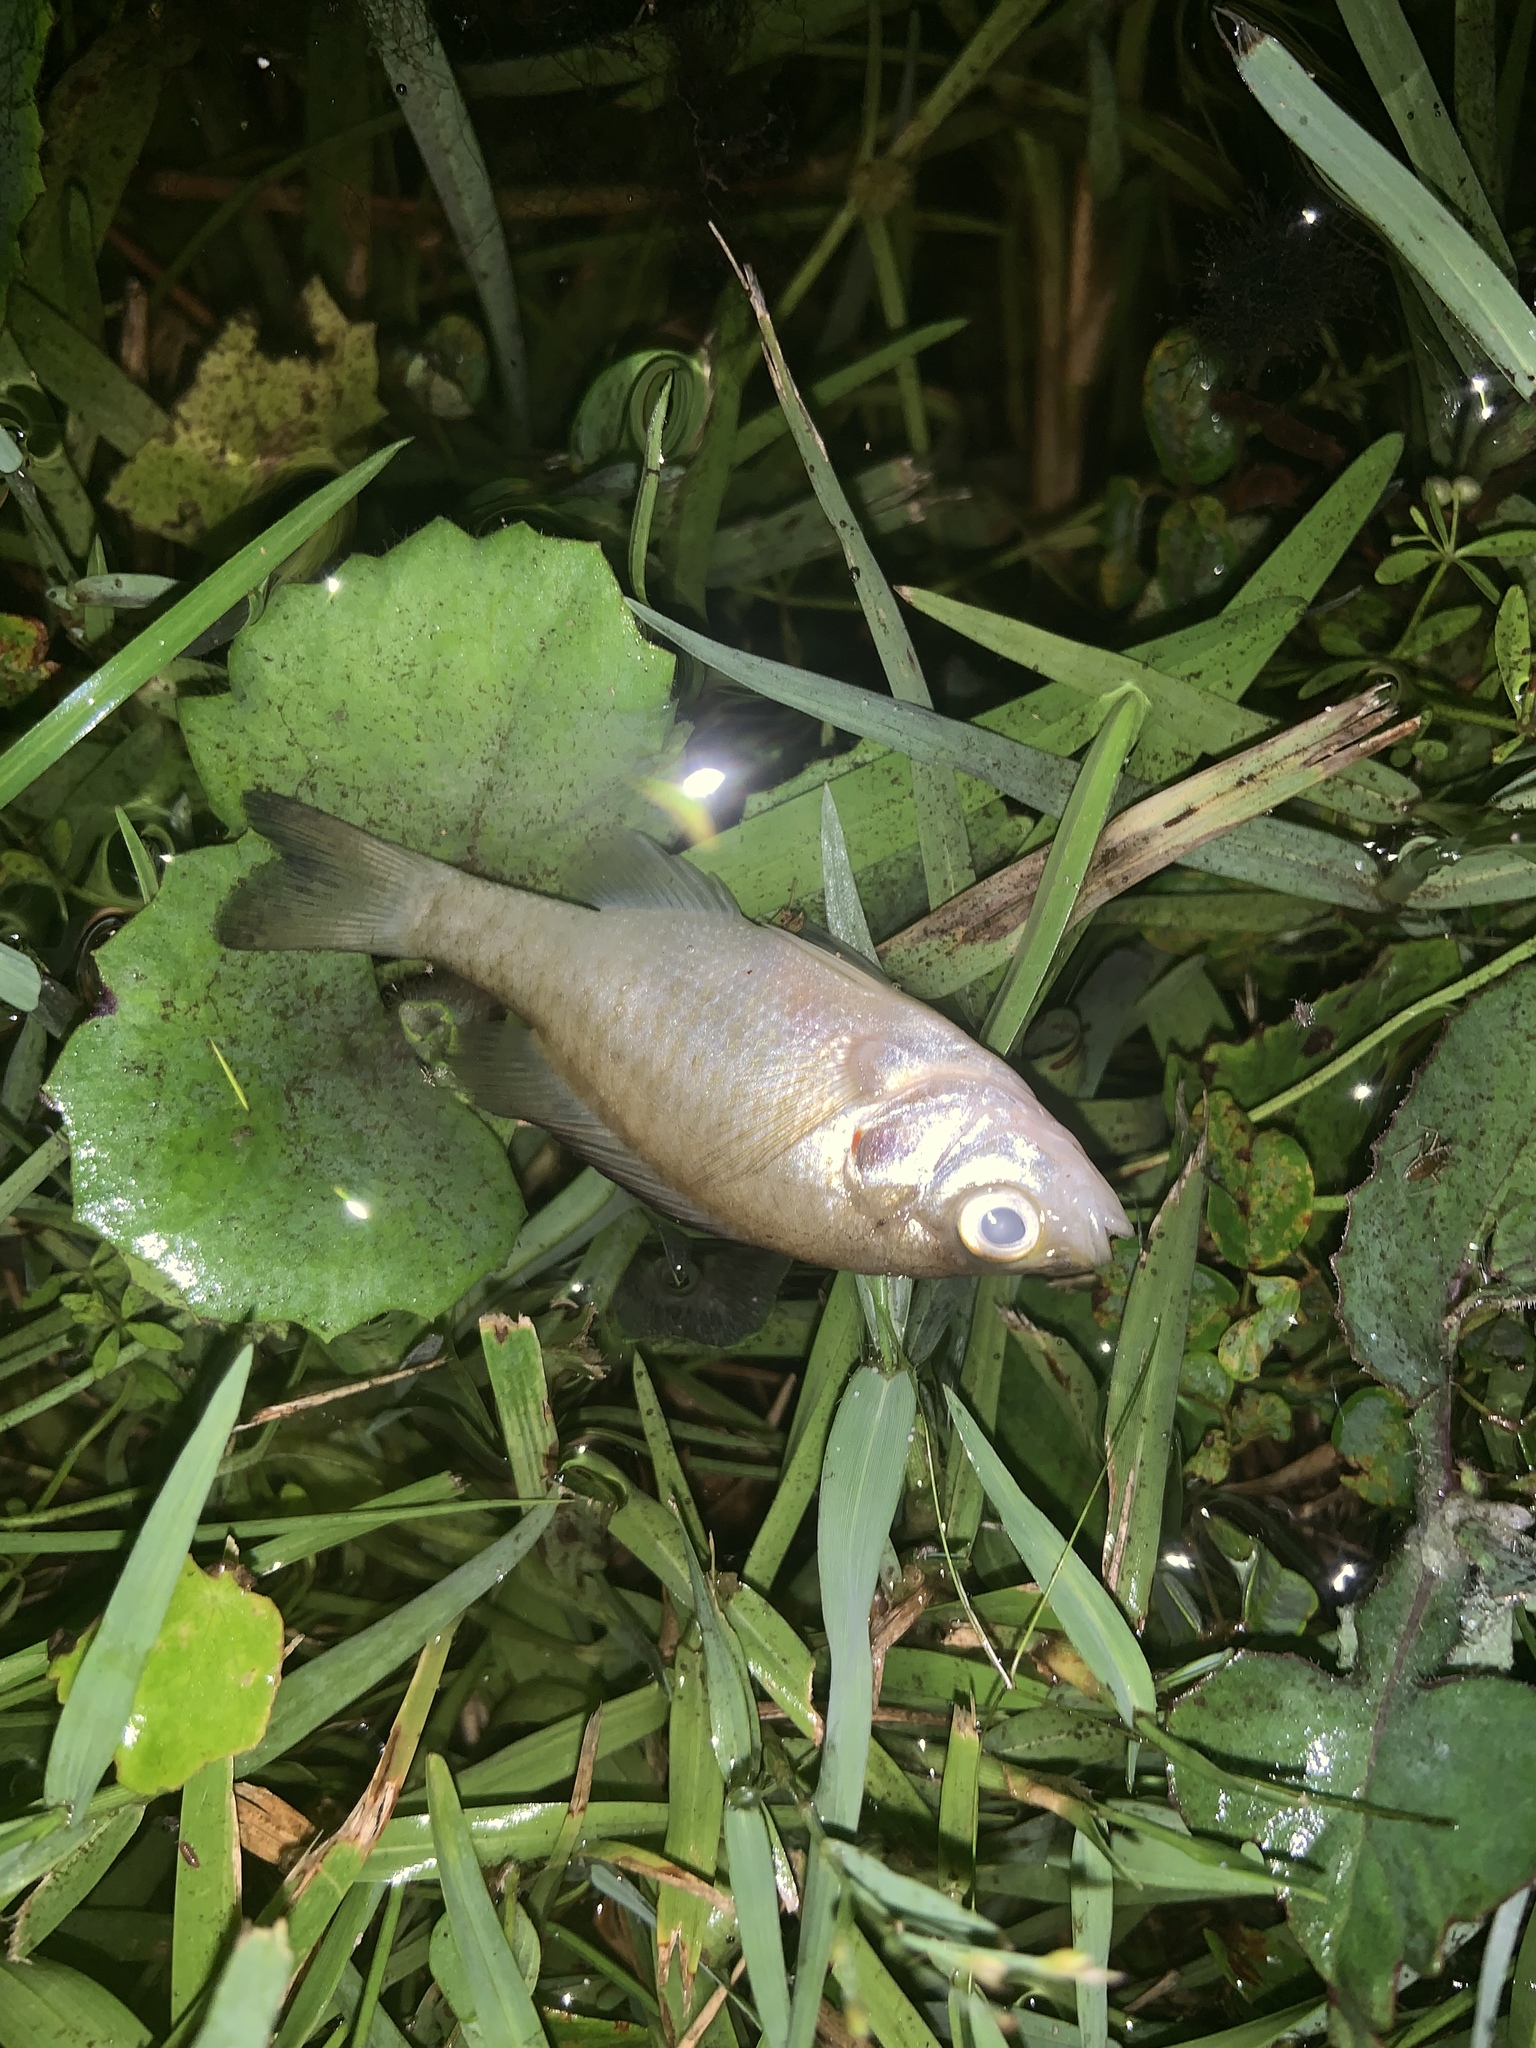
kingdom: Animalia
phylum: Chordata
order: Perciformes
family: Centrarchidae
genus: Lepomis
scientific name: Lepomis microlophus
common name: Redear sunfish
